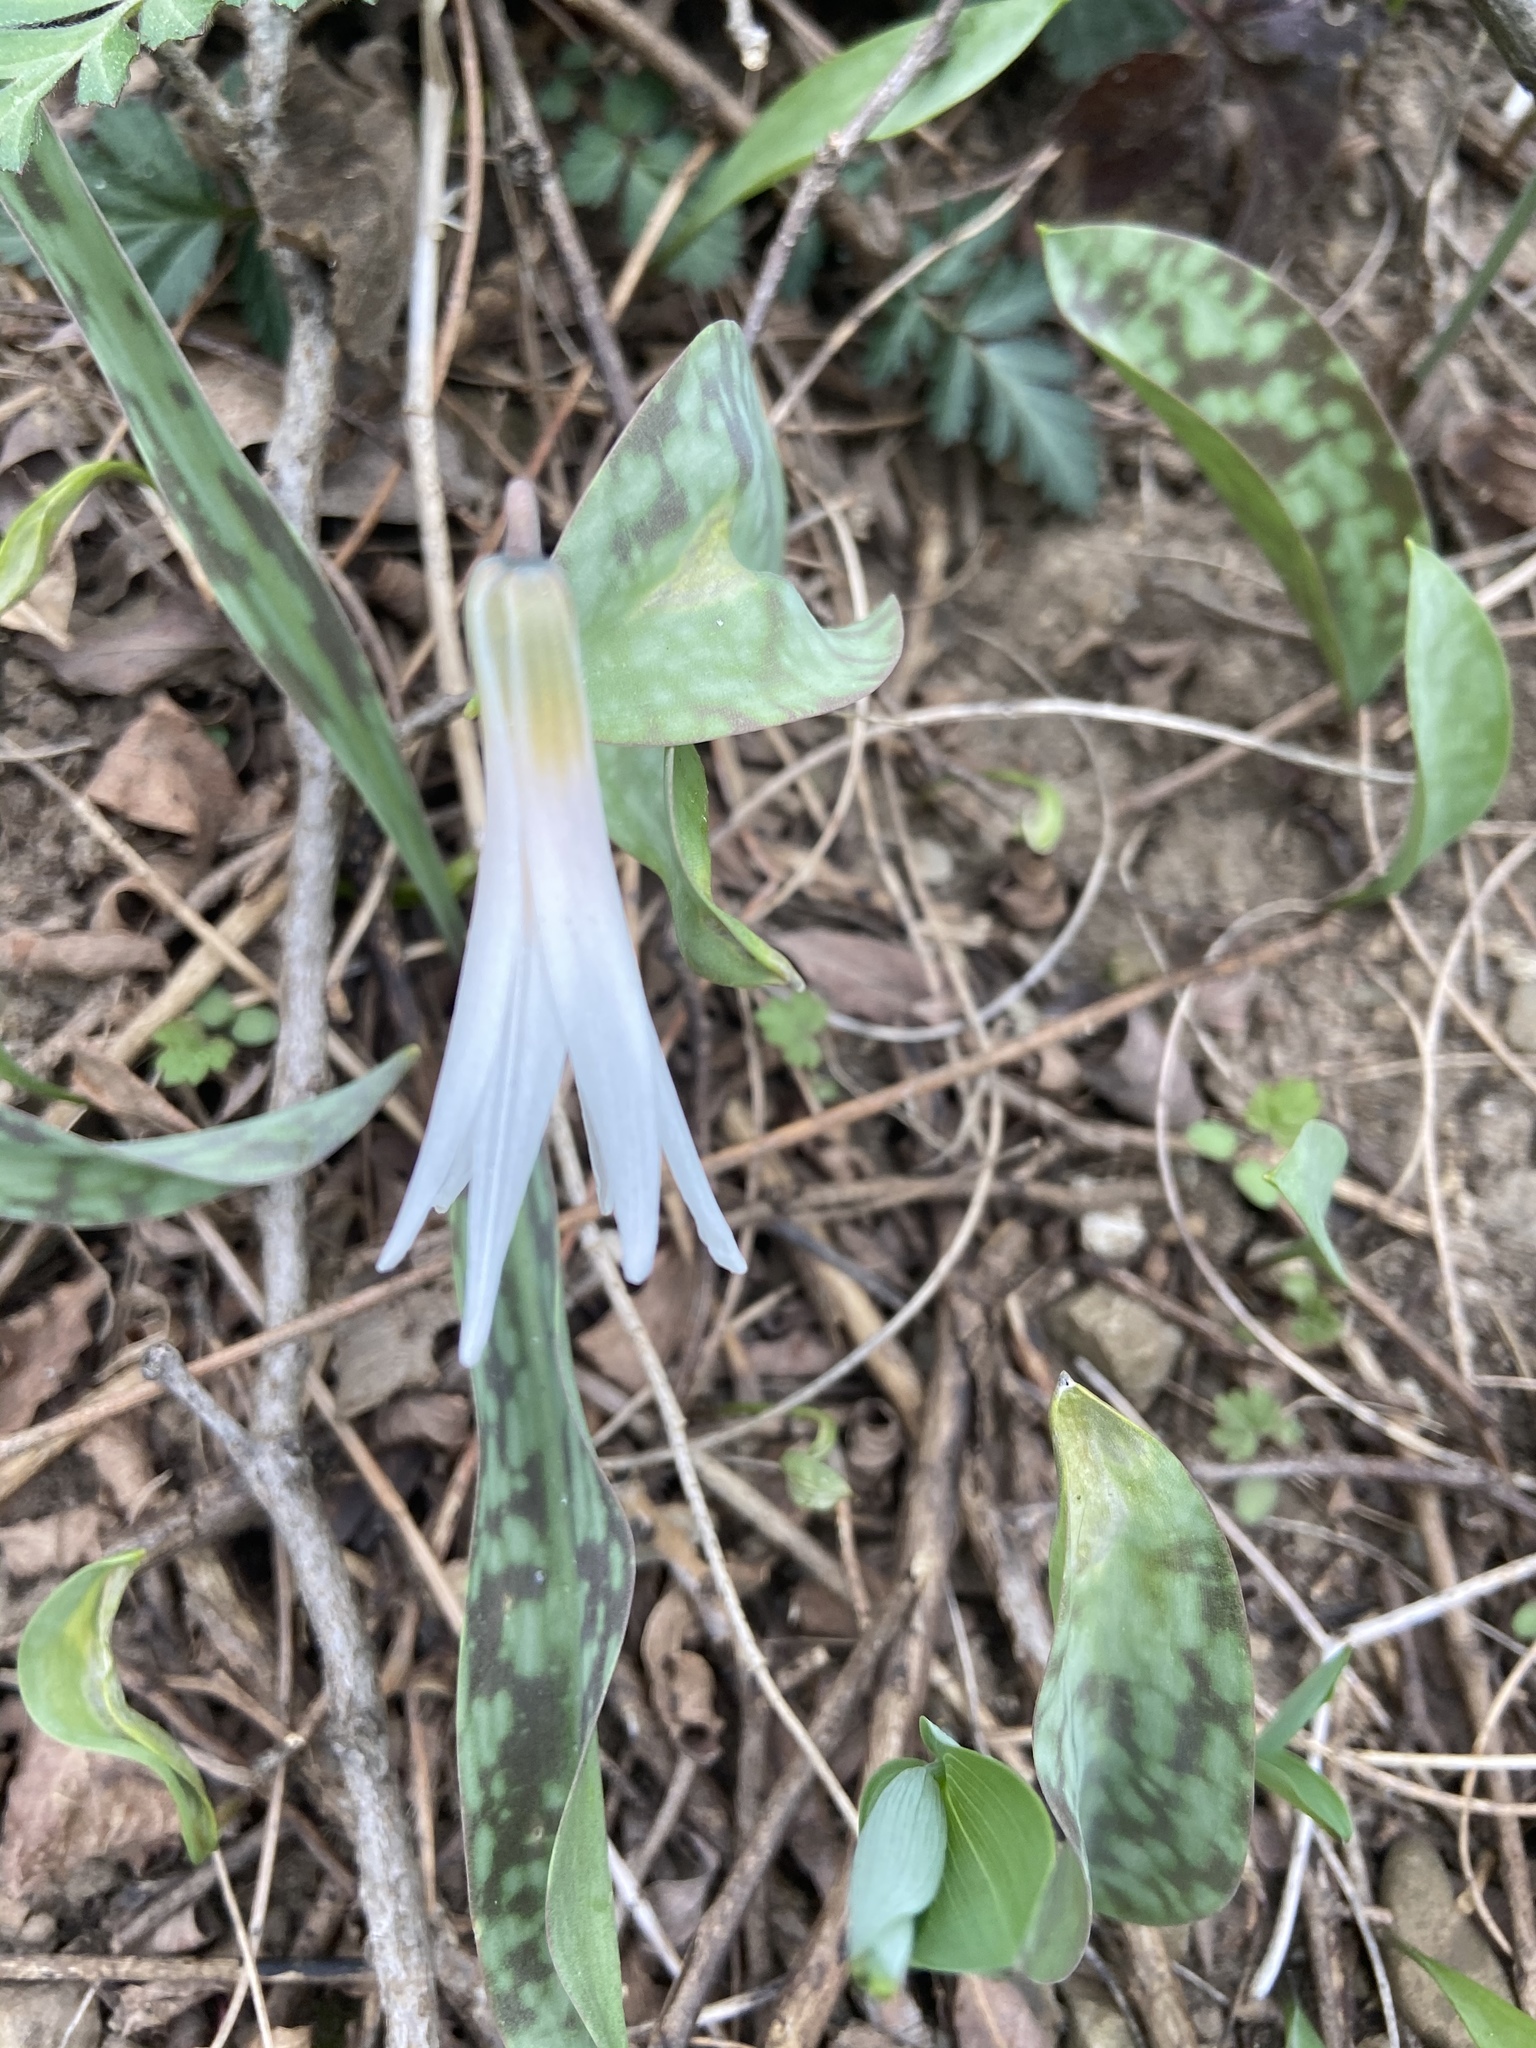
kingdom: Plantae
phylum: Tracheophyta
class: Liliopsida
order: Liliales
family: Liliaceae
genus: Erythronium
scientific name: Erythronium albidum
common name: White trout-lily
